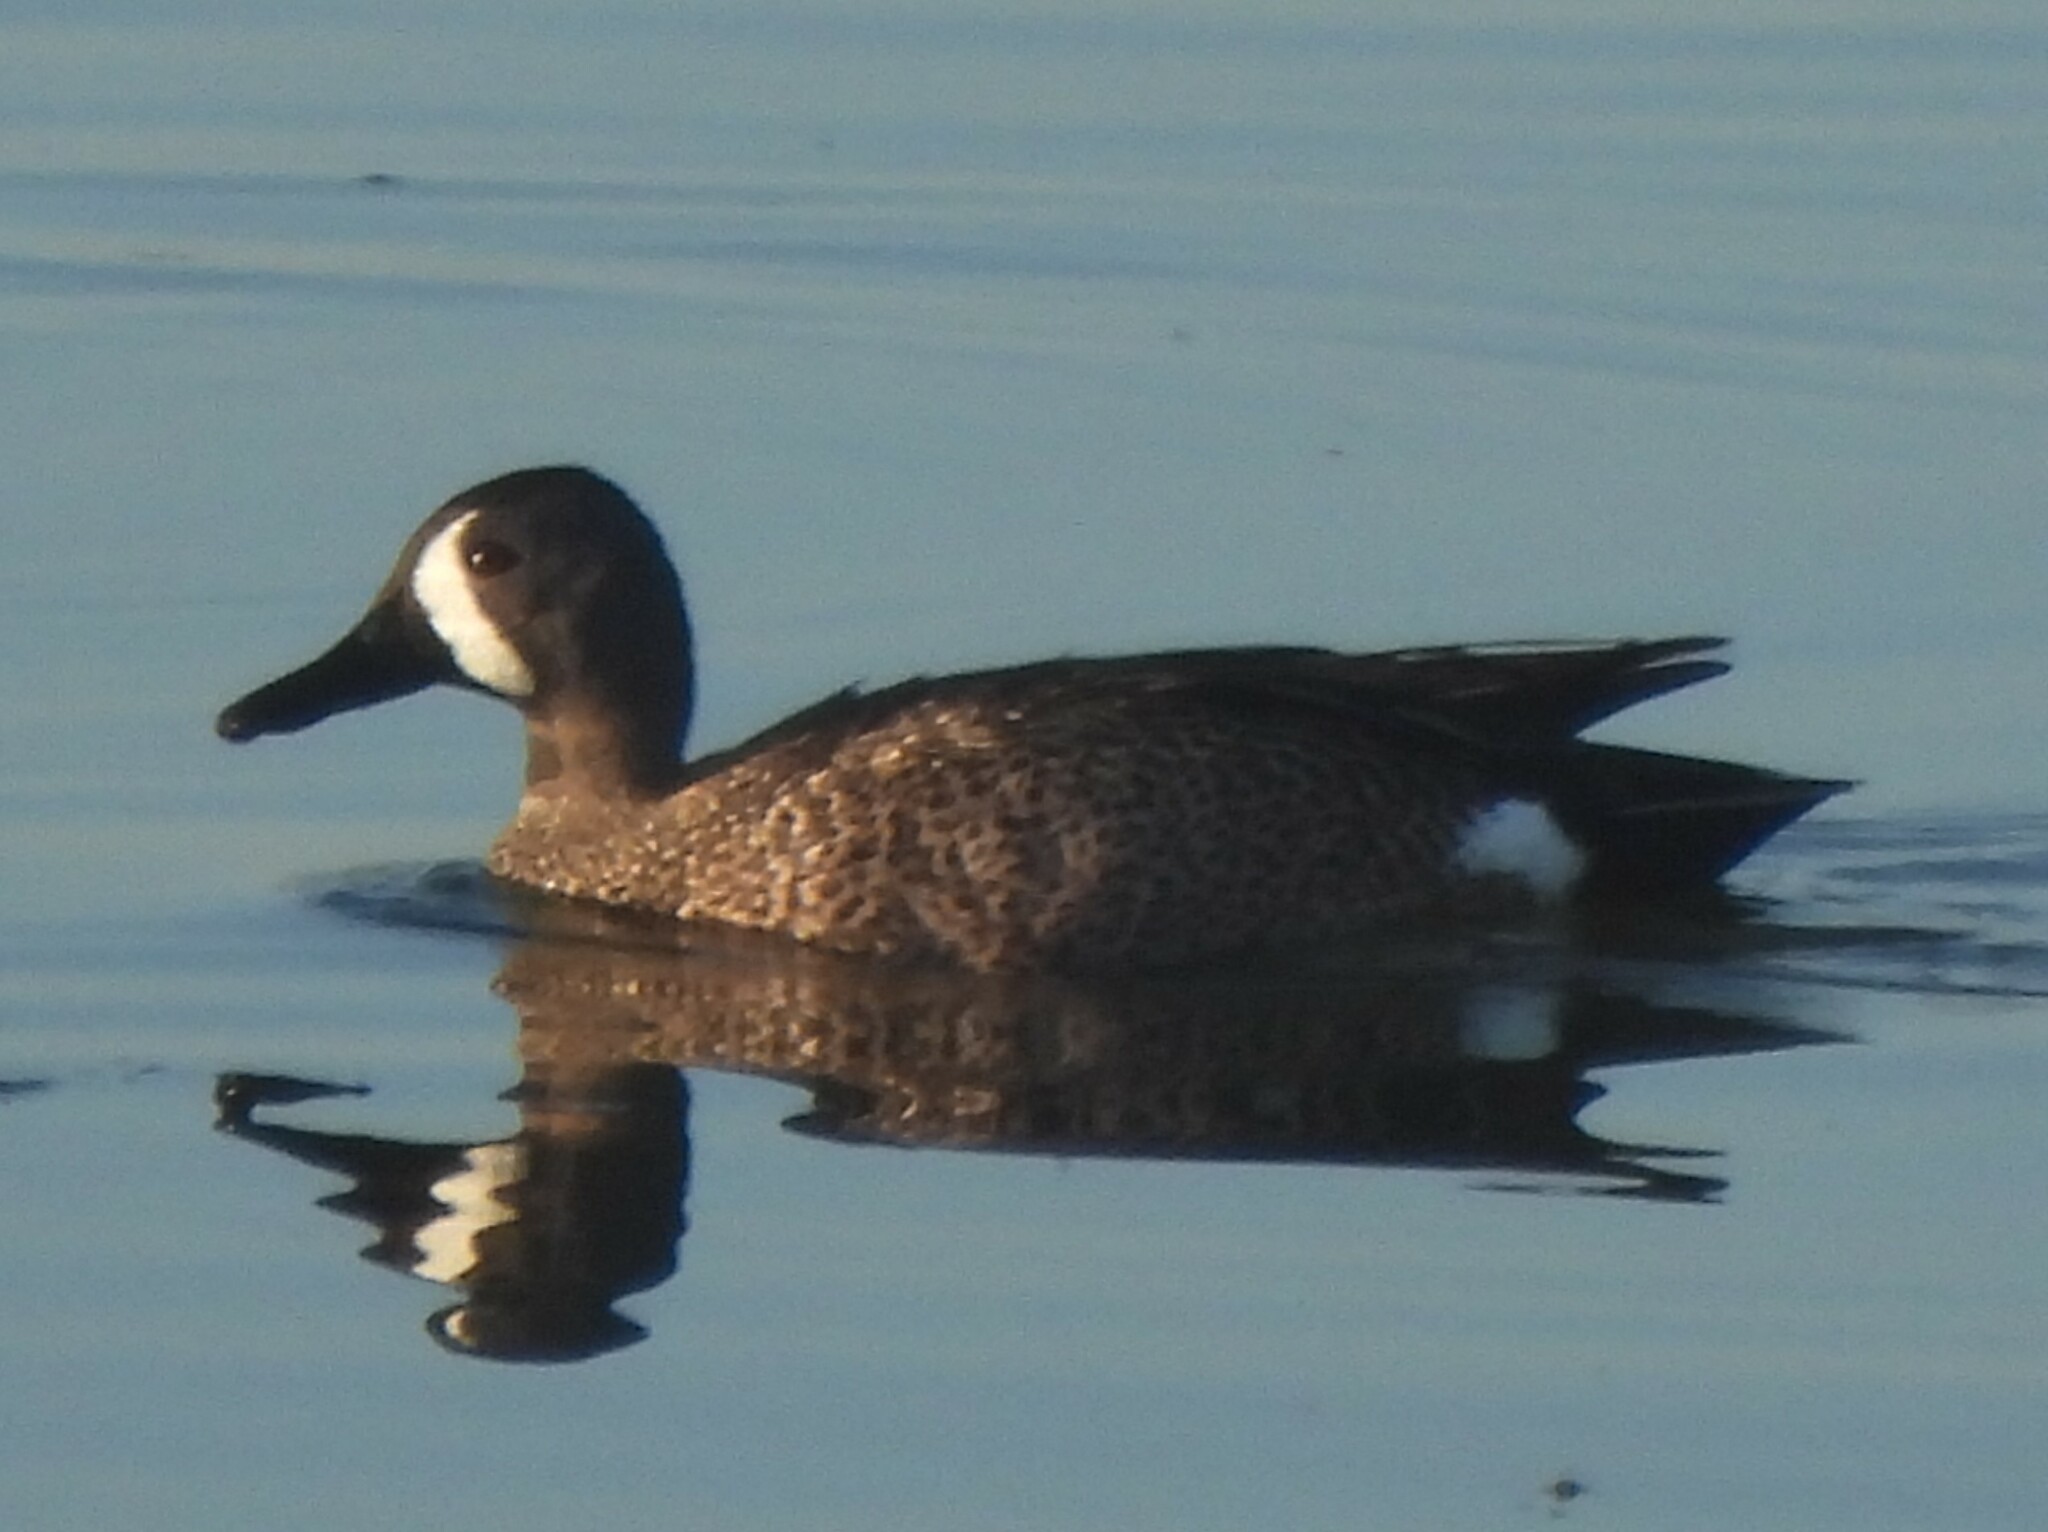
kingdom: Animalia
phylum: Chordata
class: Aves
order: Anseriformes
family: Anatidae
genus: Spatula
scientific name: Spatula discors
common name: Blue-winged teal
